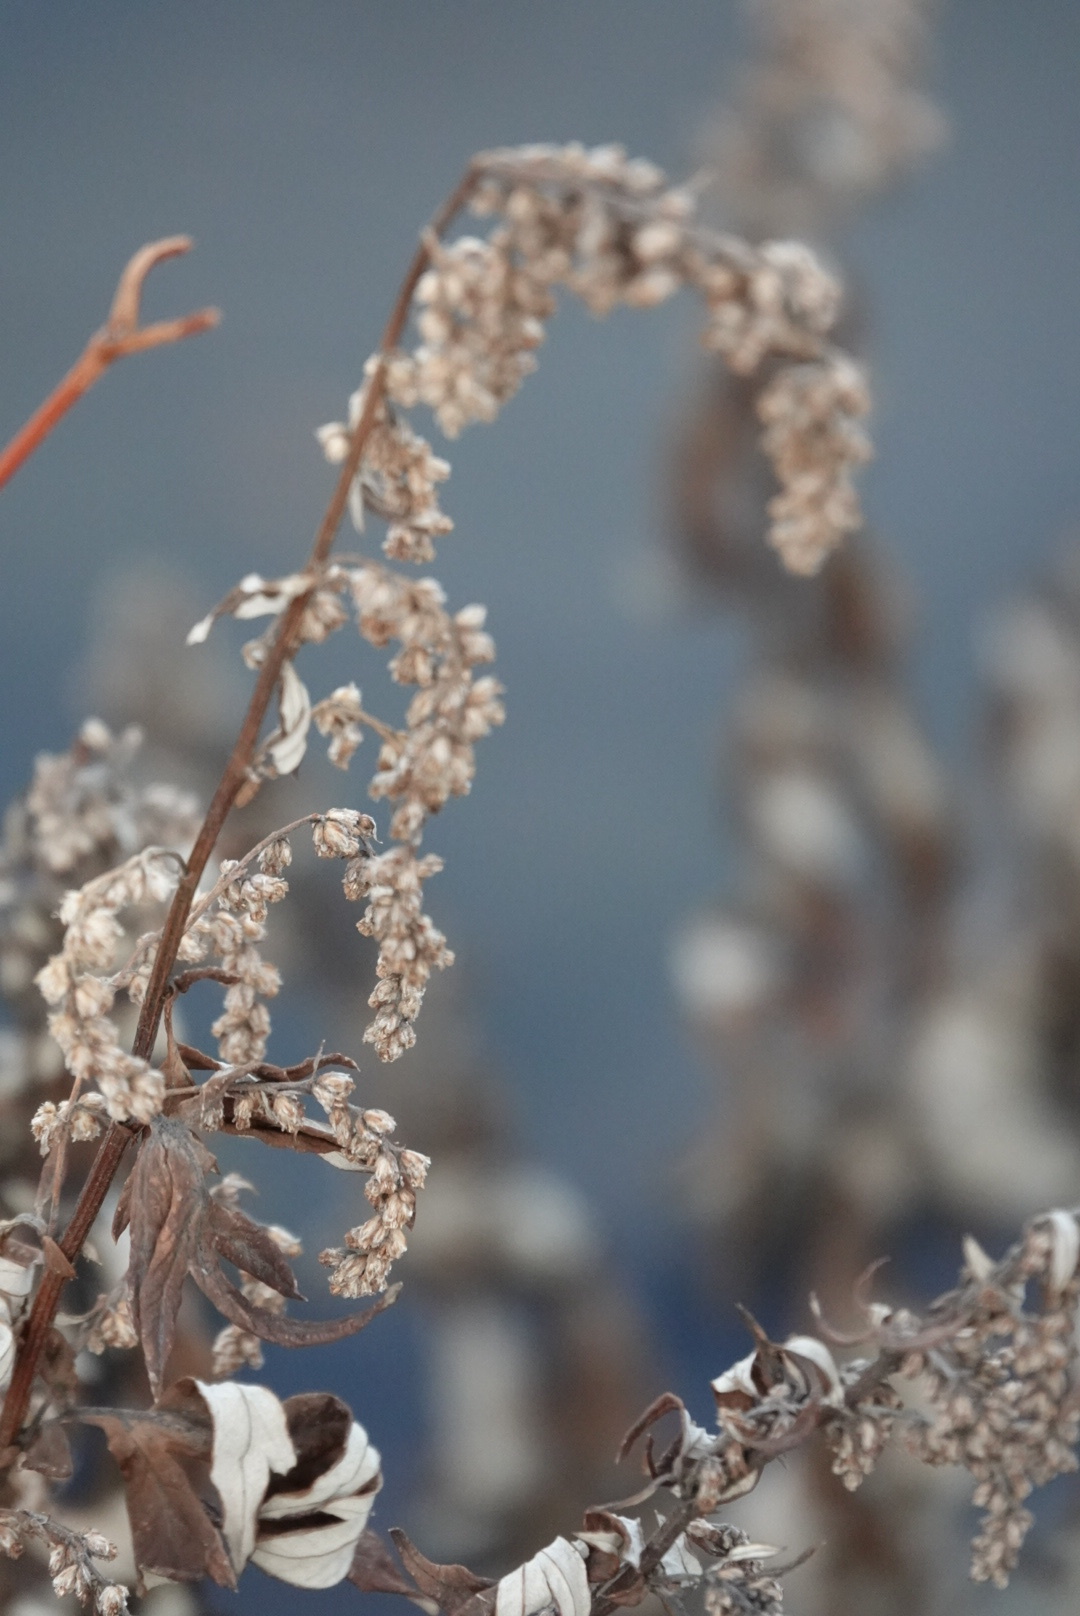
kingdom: Plantae
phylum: Tracheophyta
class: Magnoliopsida
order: Asterales
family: Asteraceae
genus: Artemisia
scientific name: Artemisia vulgaris
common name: Mugwort
